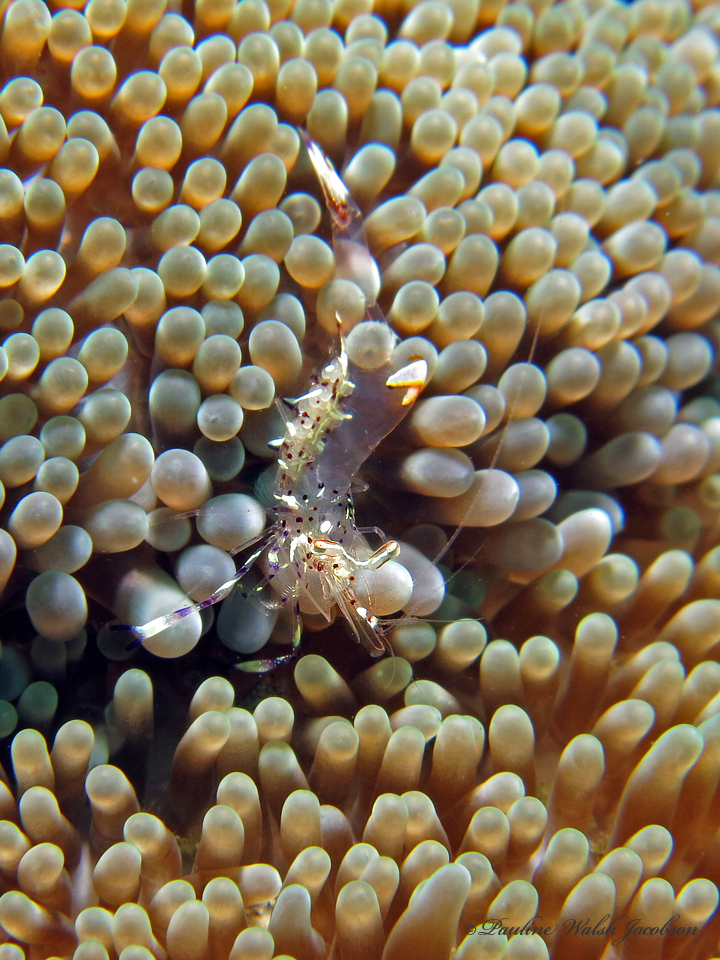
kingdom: Animalia
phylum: Arthropoda
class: Malacostraca
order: Decapoda
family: Palaemonidae
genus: Ancylomenes
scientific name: Ancylomenes holthuisi
